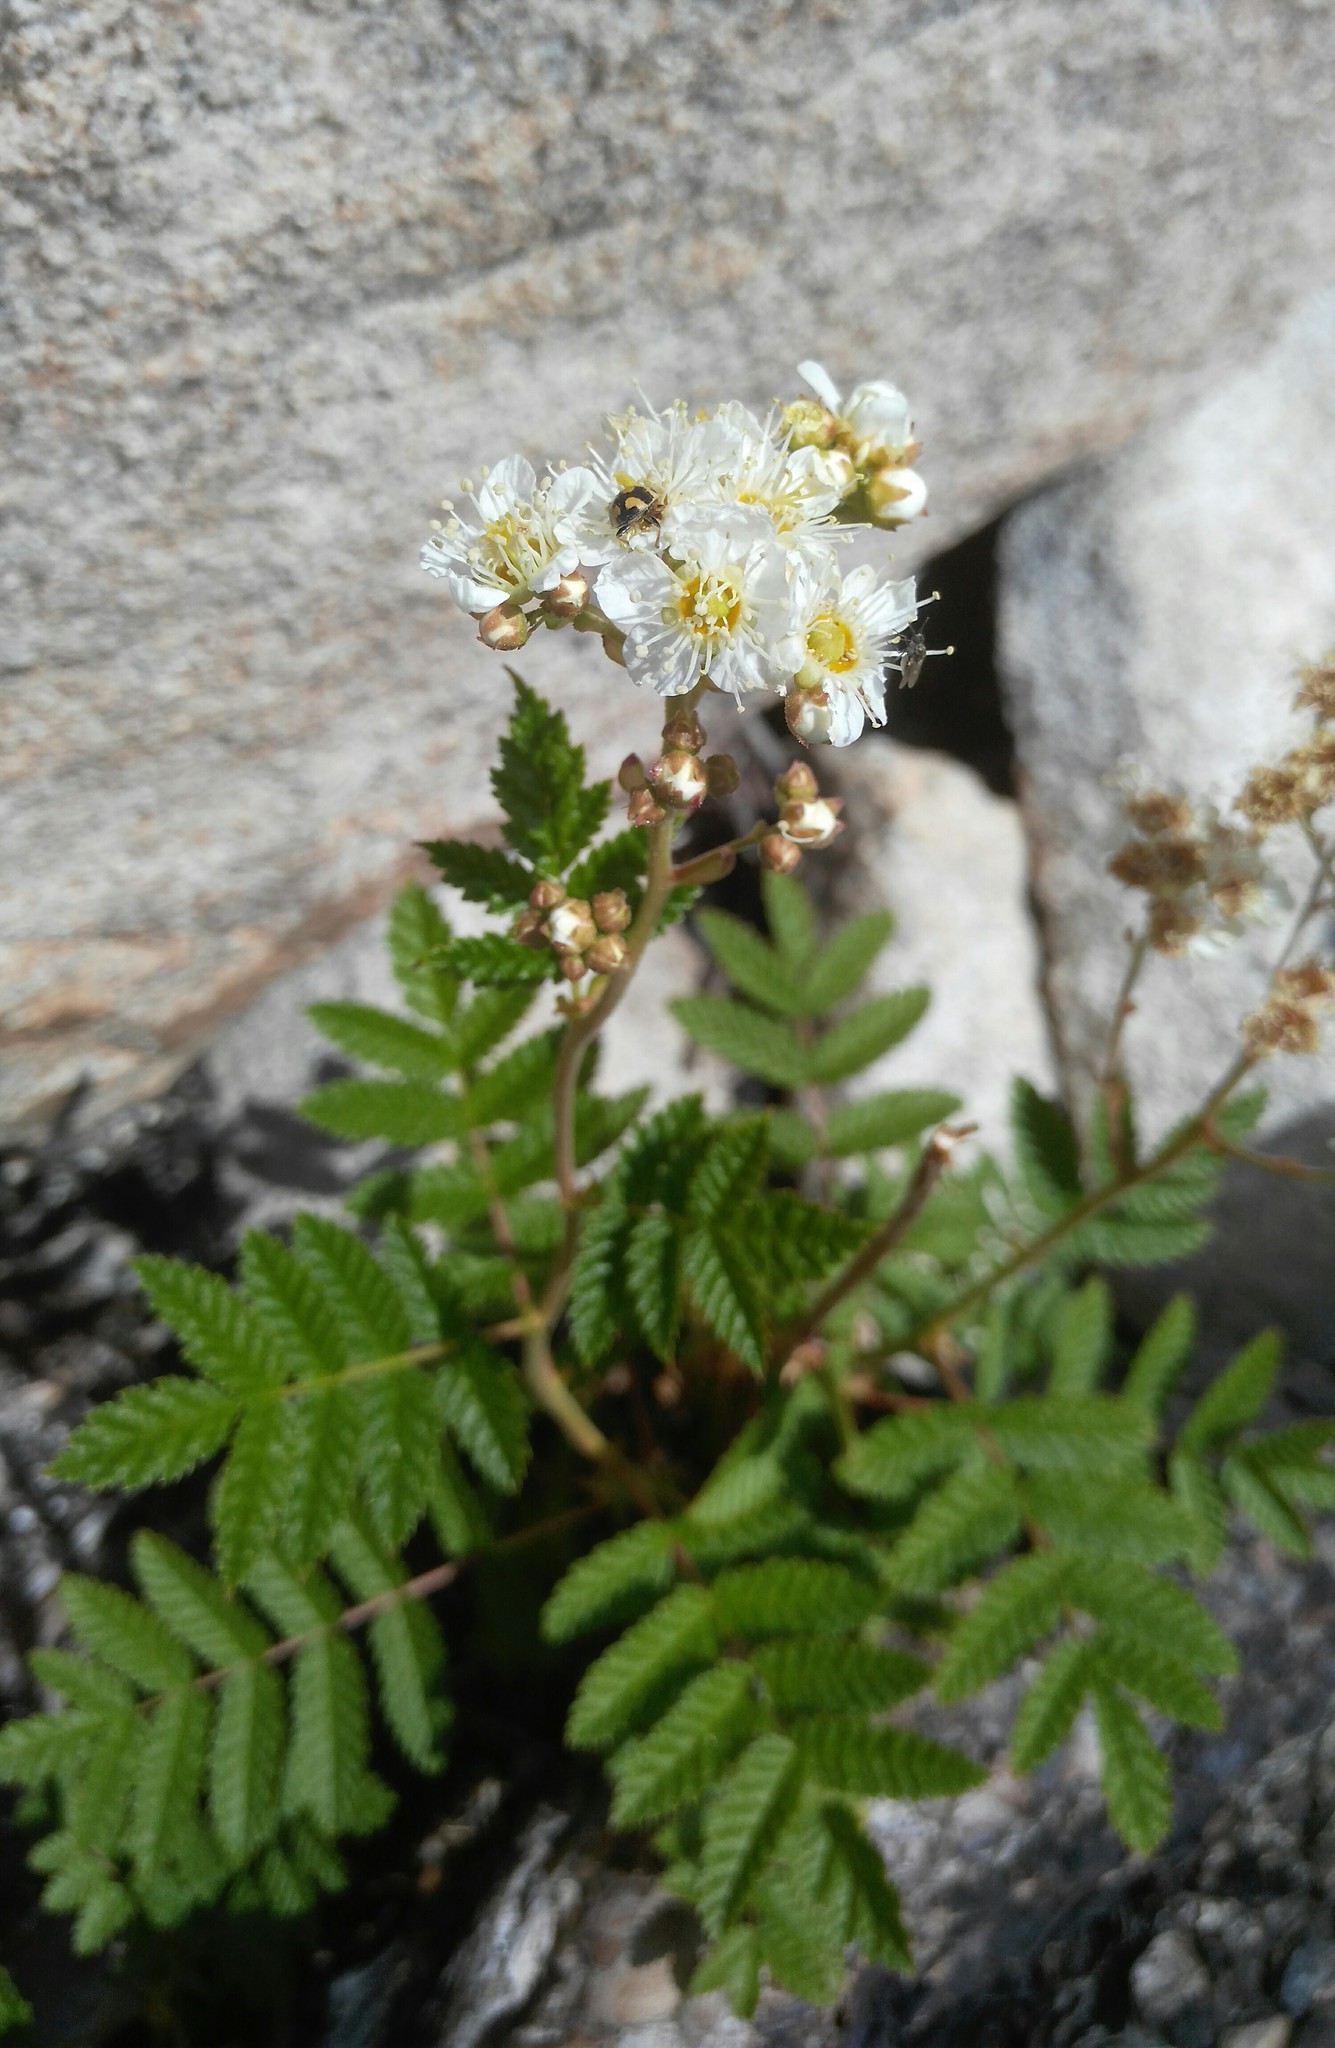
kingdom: Plantae
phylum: Tracheophyta
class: Magnoliopsida
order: Rosales
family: Rosaceae
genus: Sorbaria
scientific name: Sorbaria pallasii
